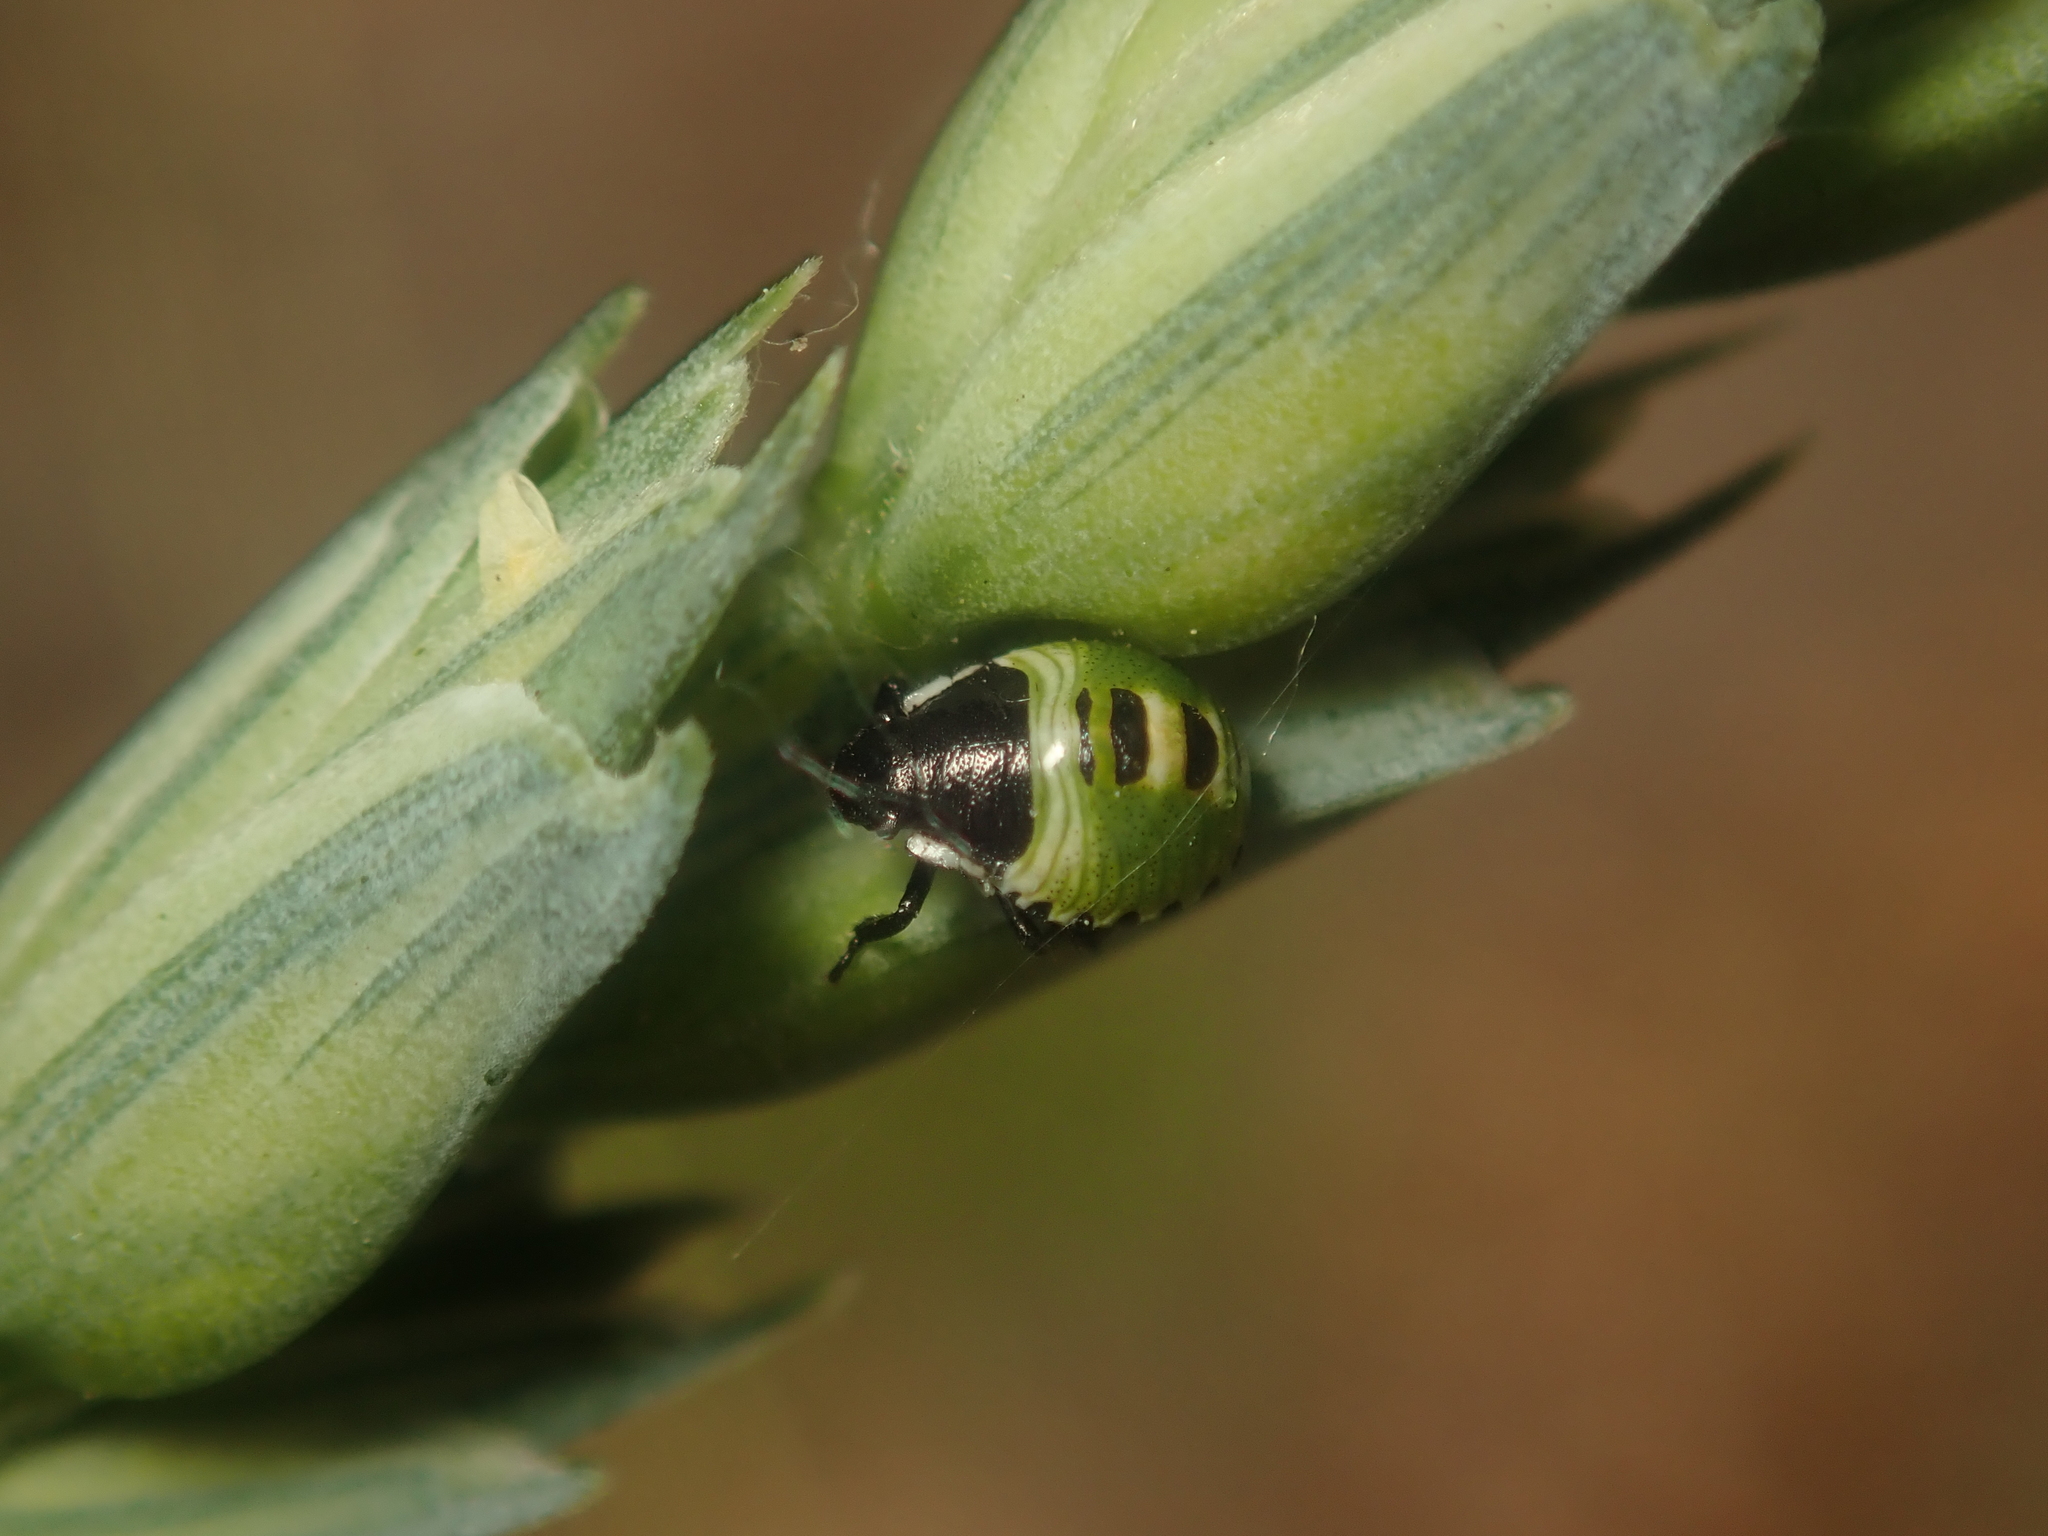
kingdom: Animalia
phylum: Arthropoda
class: Insecta
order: Hemiptera
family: Pentatomidae
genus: Palomena
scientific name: Palomena prasina
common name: Green shieldbug
